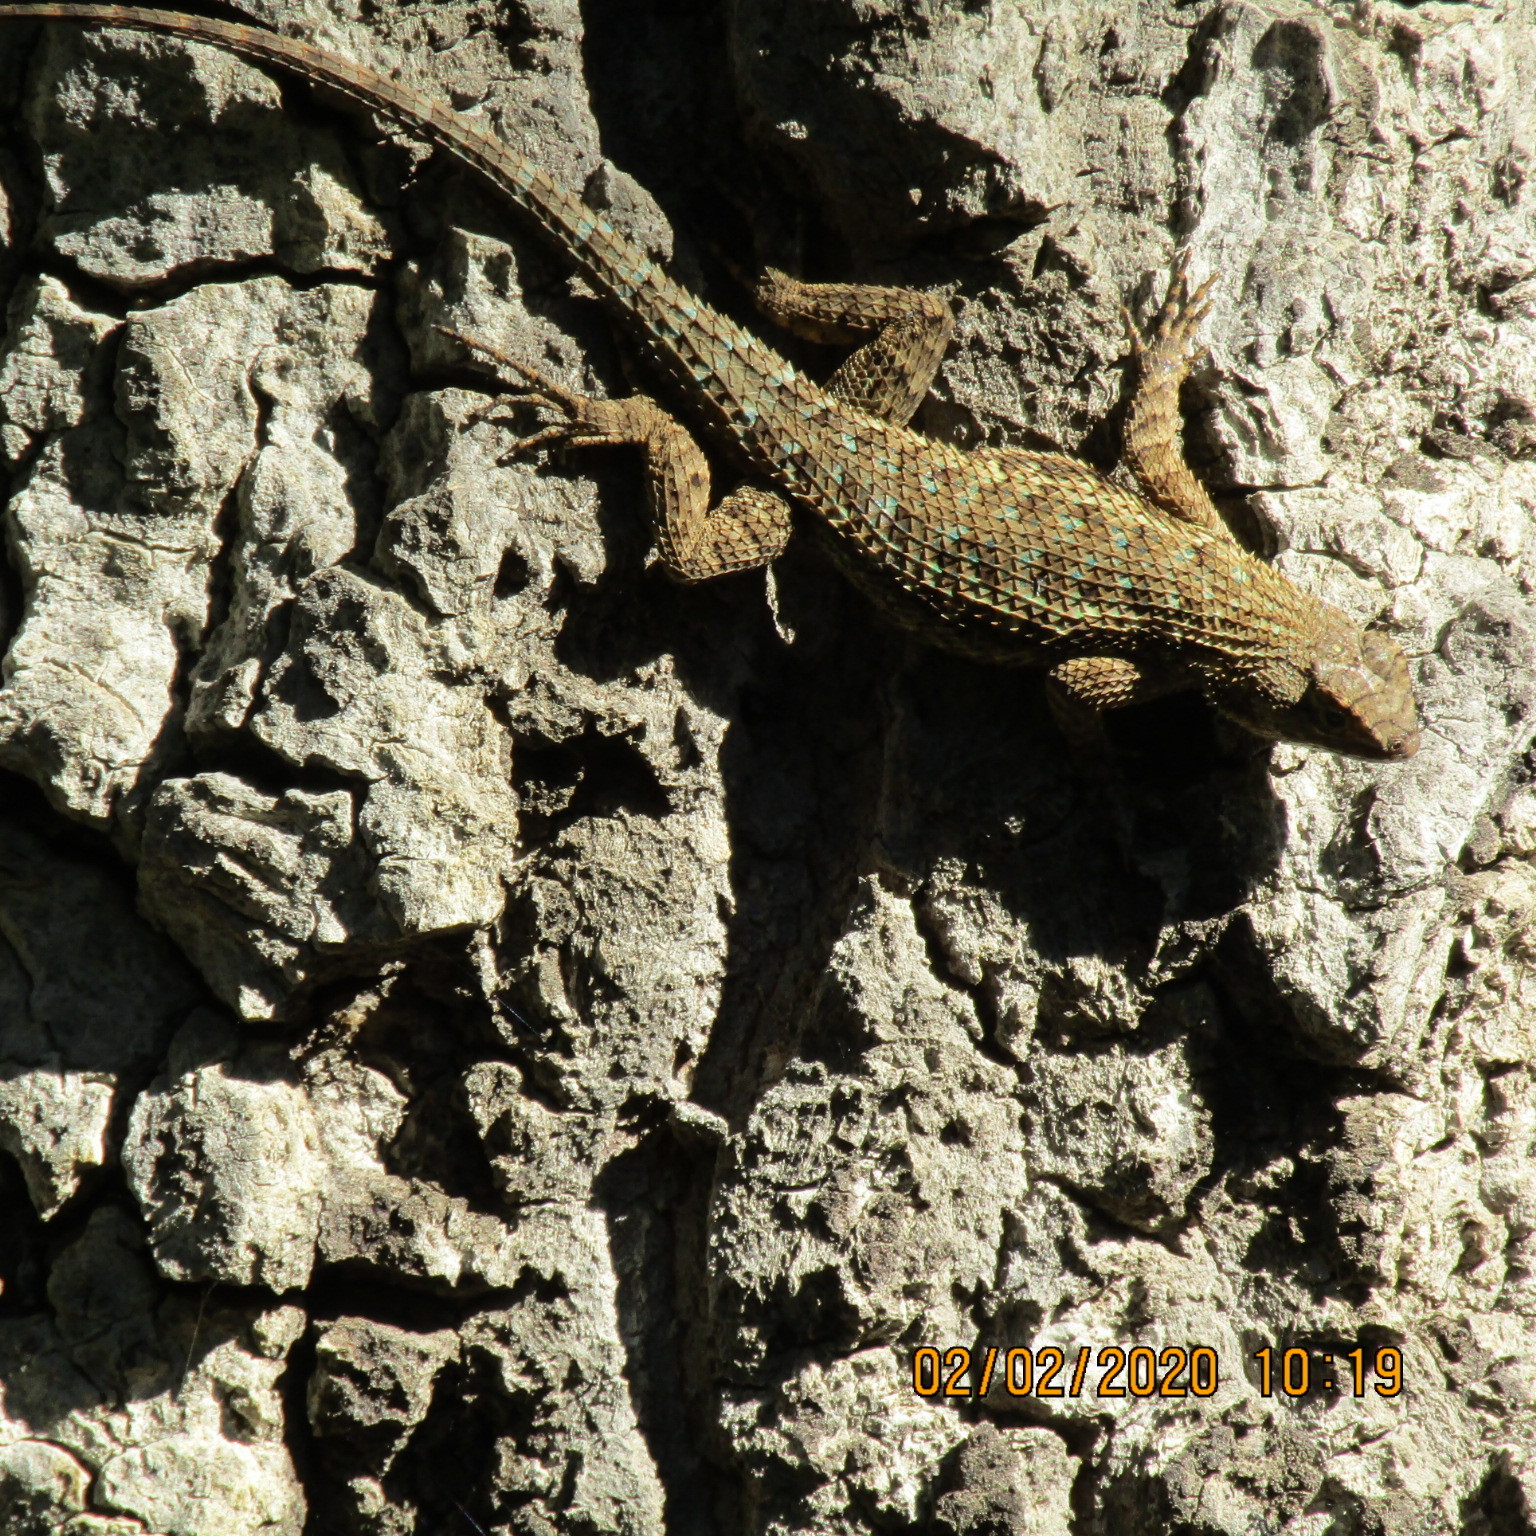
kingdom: Animalia
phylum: Chordata
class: Squamata
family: Phrynosomatidae
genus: Sceloporus
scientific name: Sceloporus occidentalis
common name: Western fence lizard
